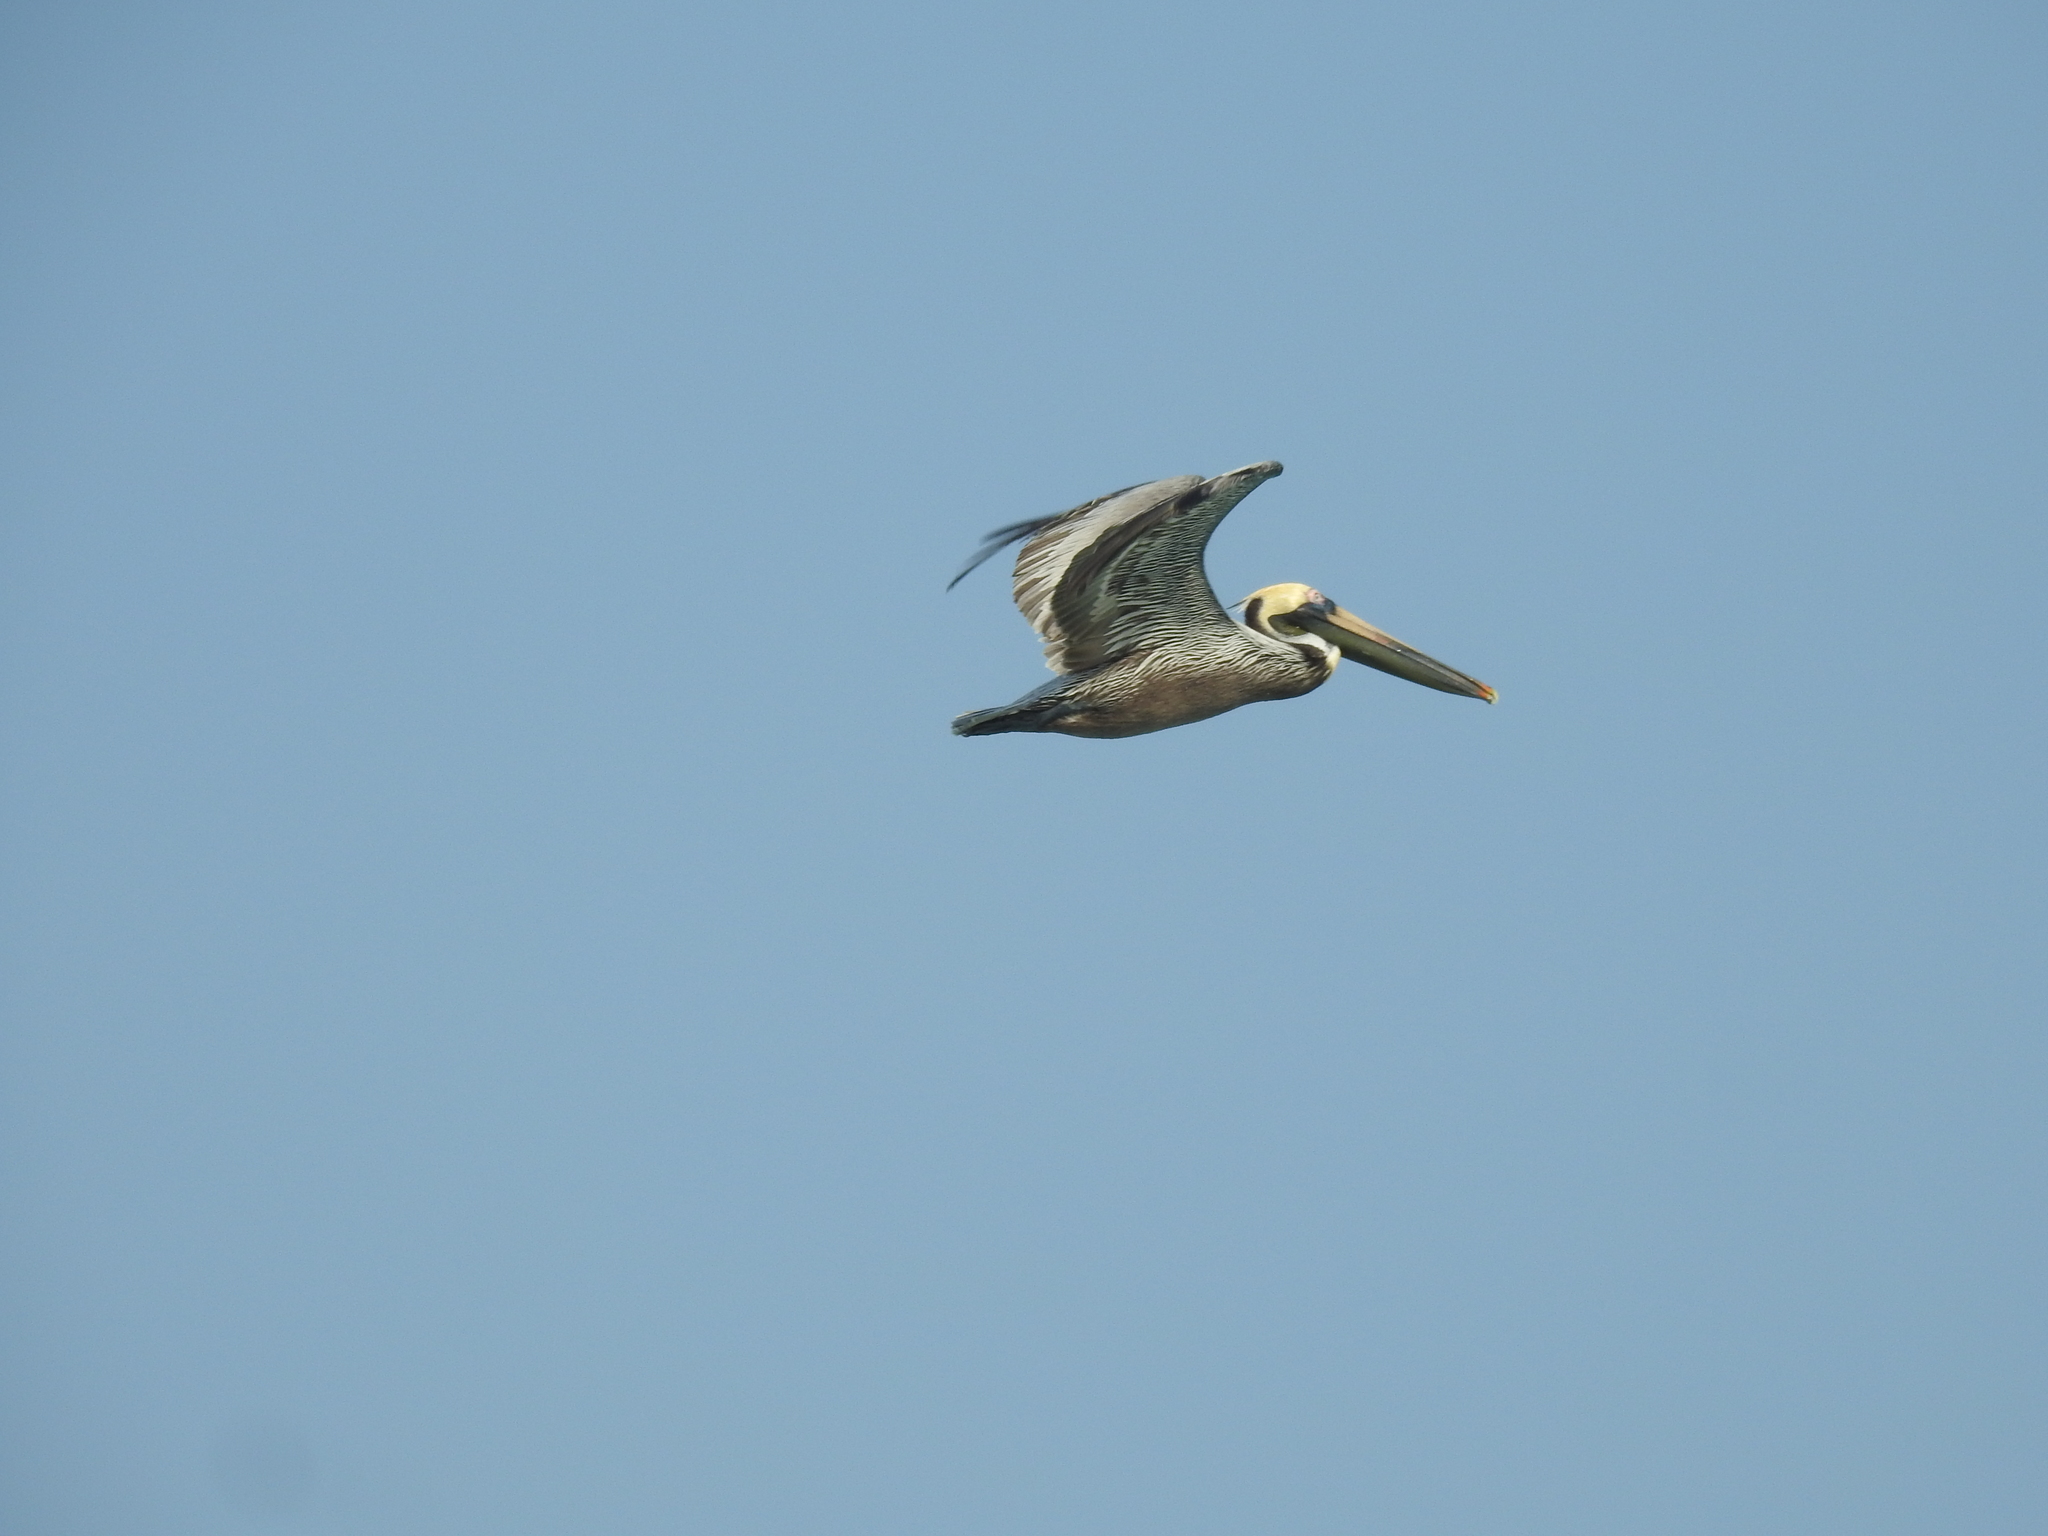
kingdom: Animalia
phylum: Chordata
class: Aves
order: Pelecaniformes
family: Pelecanidae
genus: Pelecanus
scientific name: Pelecanus occidentalis
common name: Brown pelican
